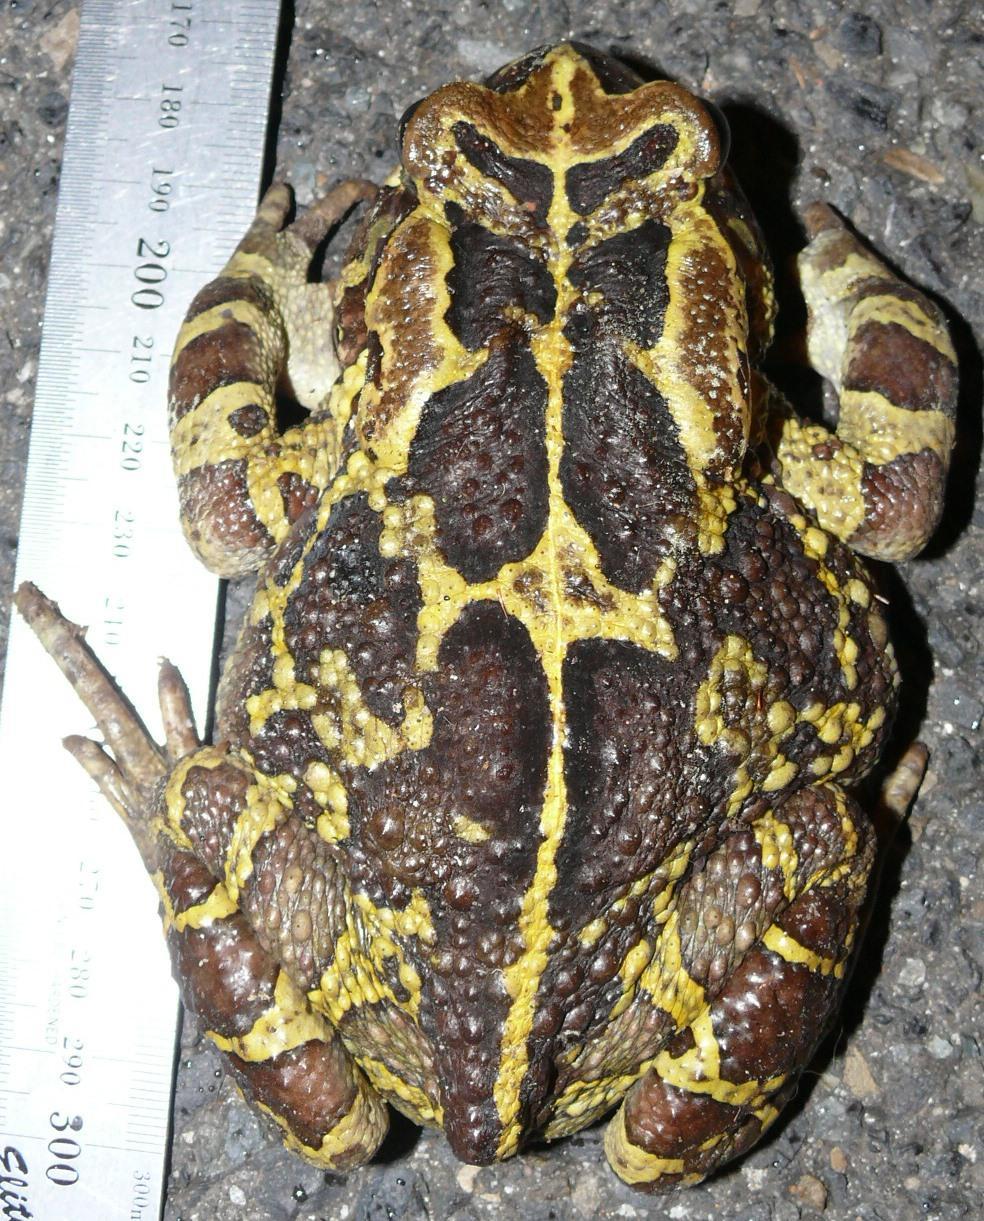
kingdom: Animalia
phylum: Chordata
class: Amphibia
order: Anura
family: Bufonidae
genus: Sclerophrys
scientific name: Sclerophrys pantherina
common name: Panther toad
